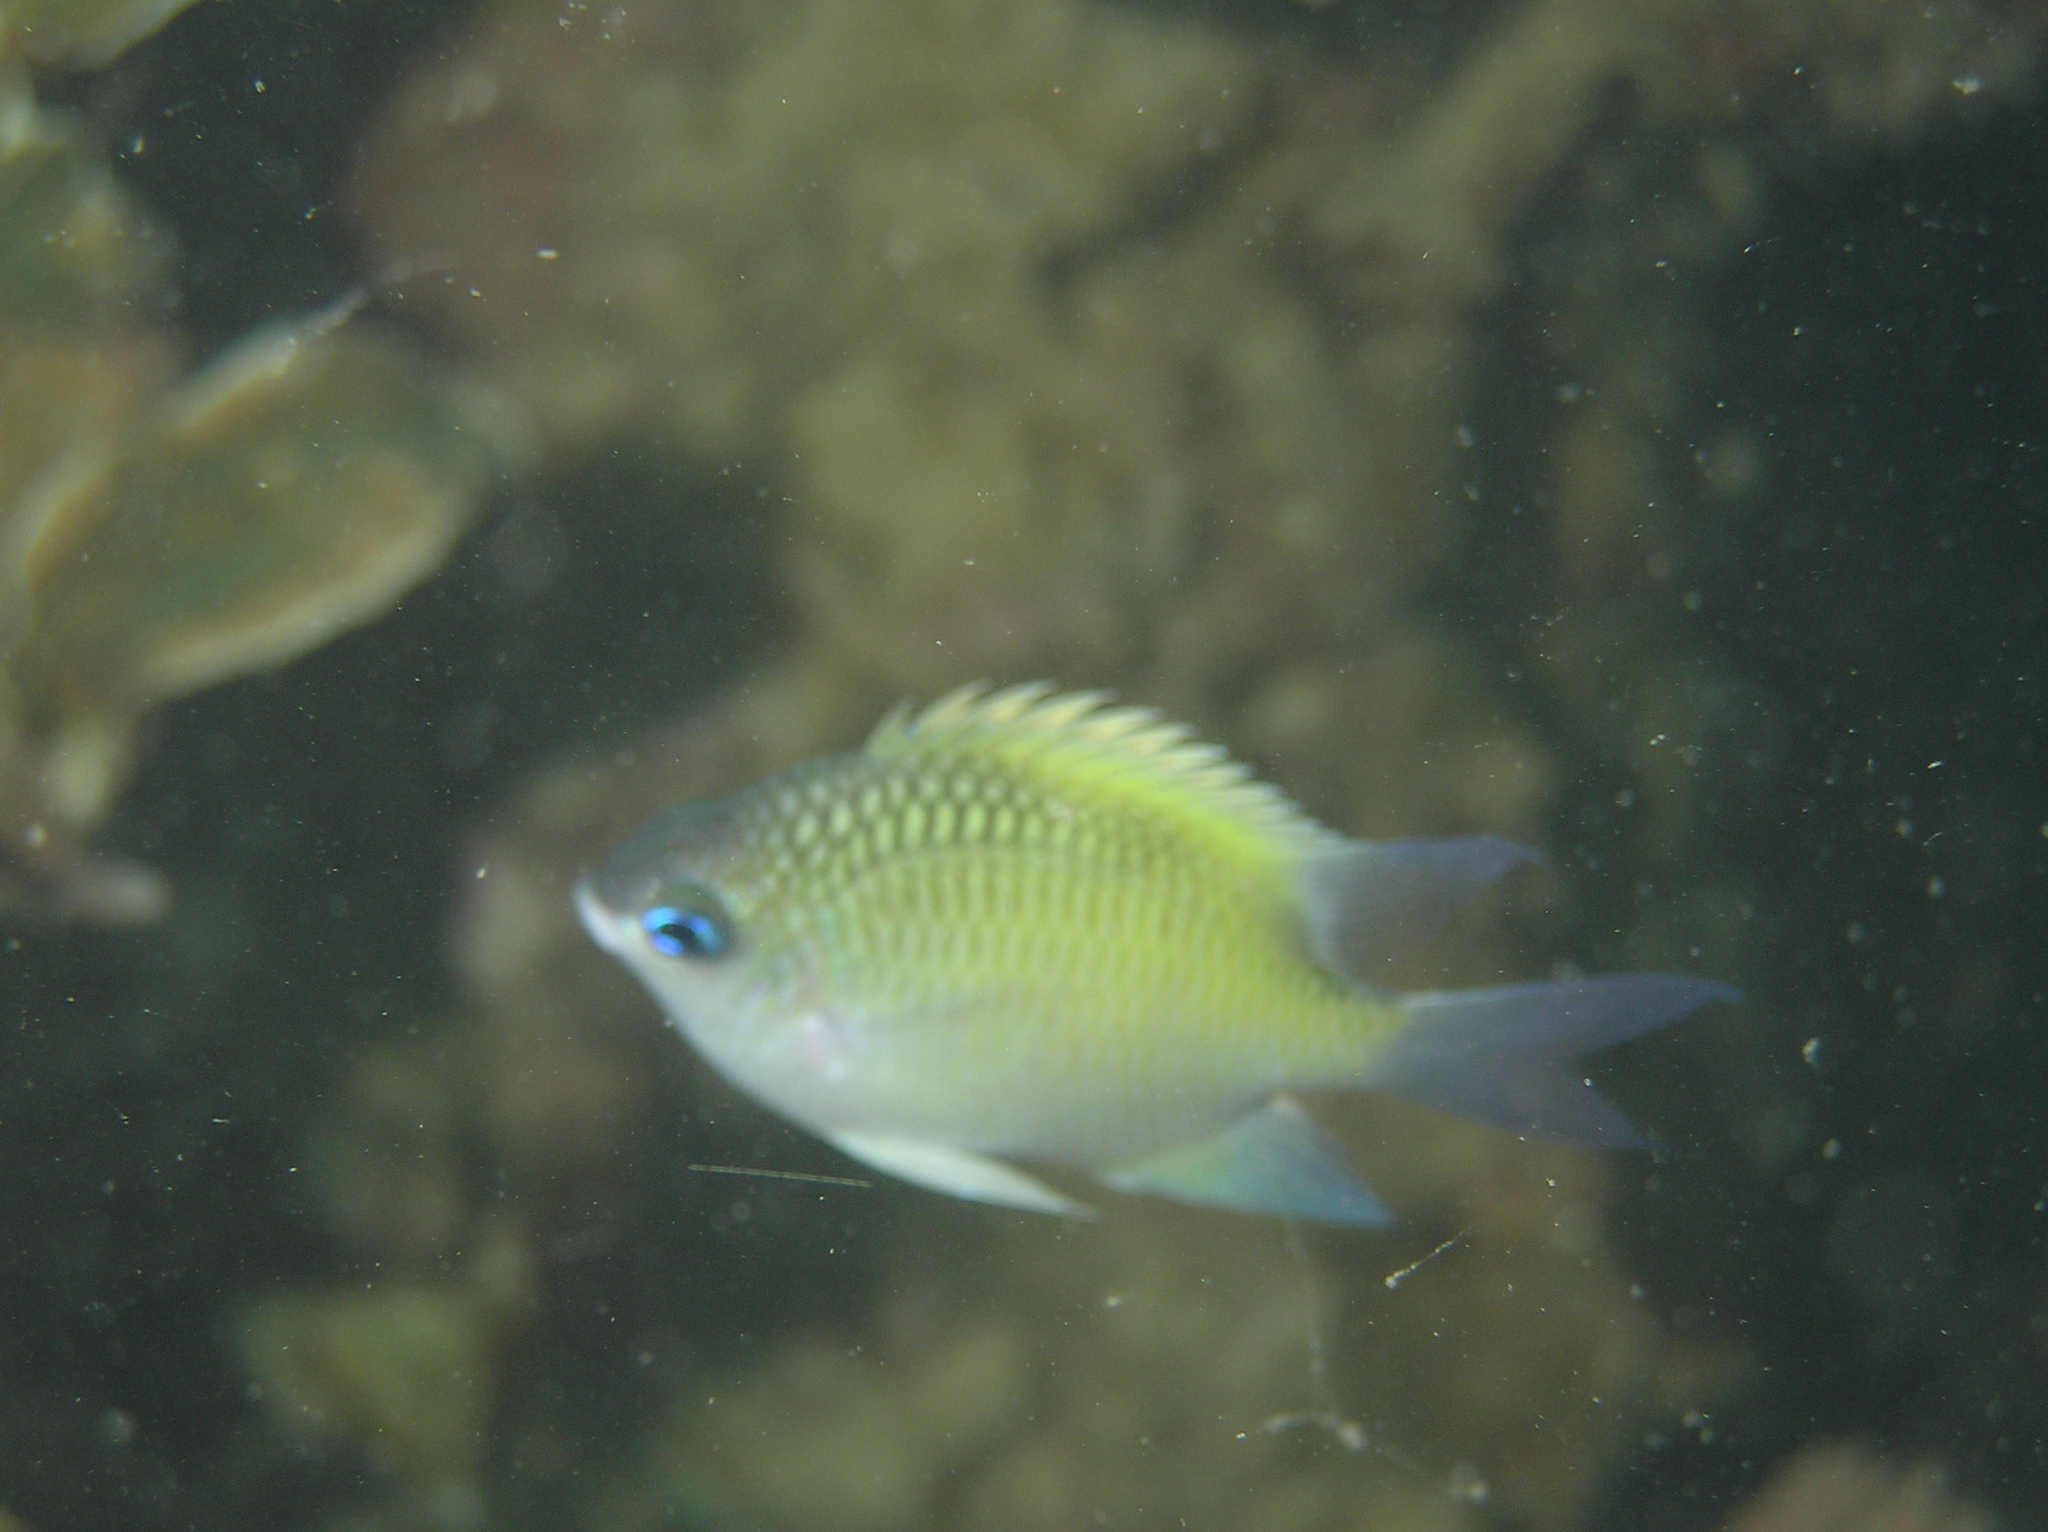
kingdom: Animalia
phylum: Chordata
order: Perciformes
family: Pomacentridae
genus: Amblyglyphidodon
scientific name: Amblyglyphidodon batunaorum
